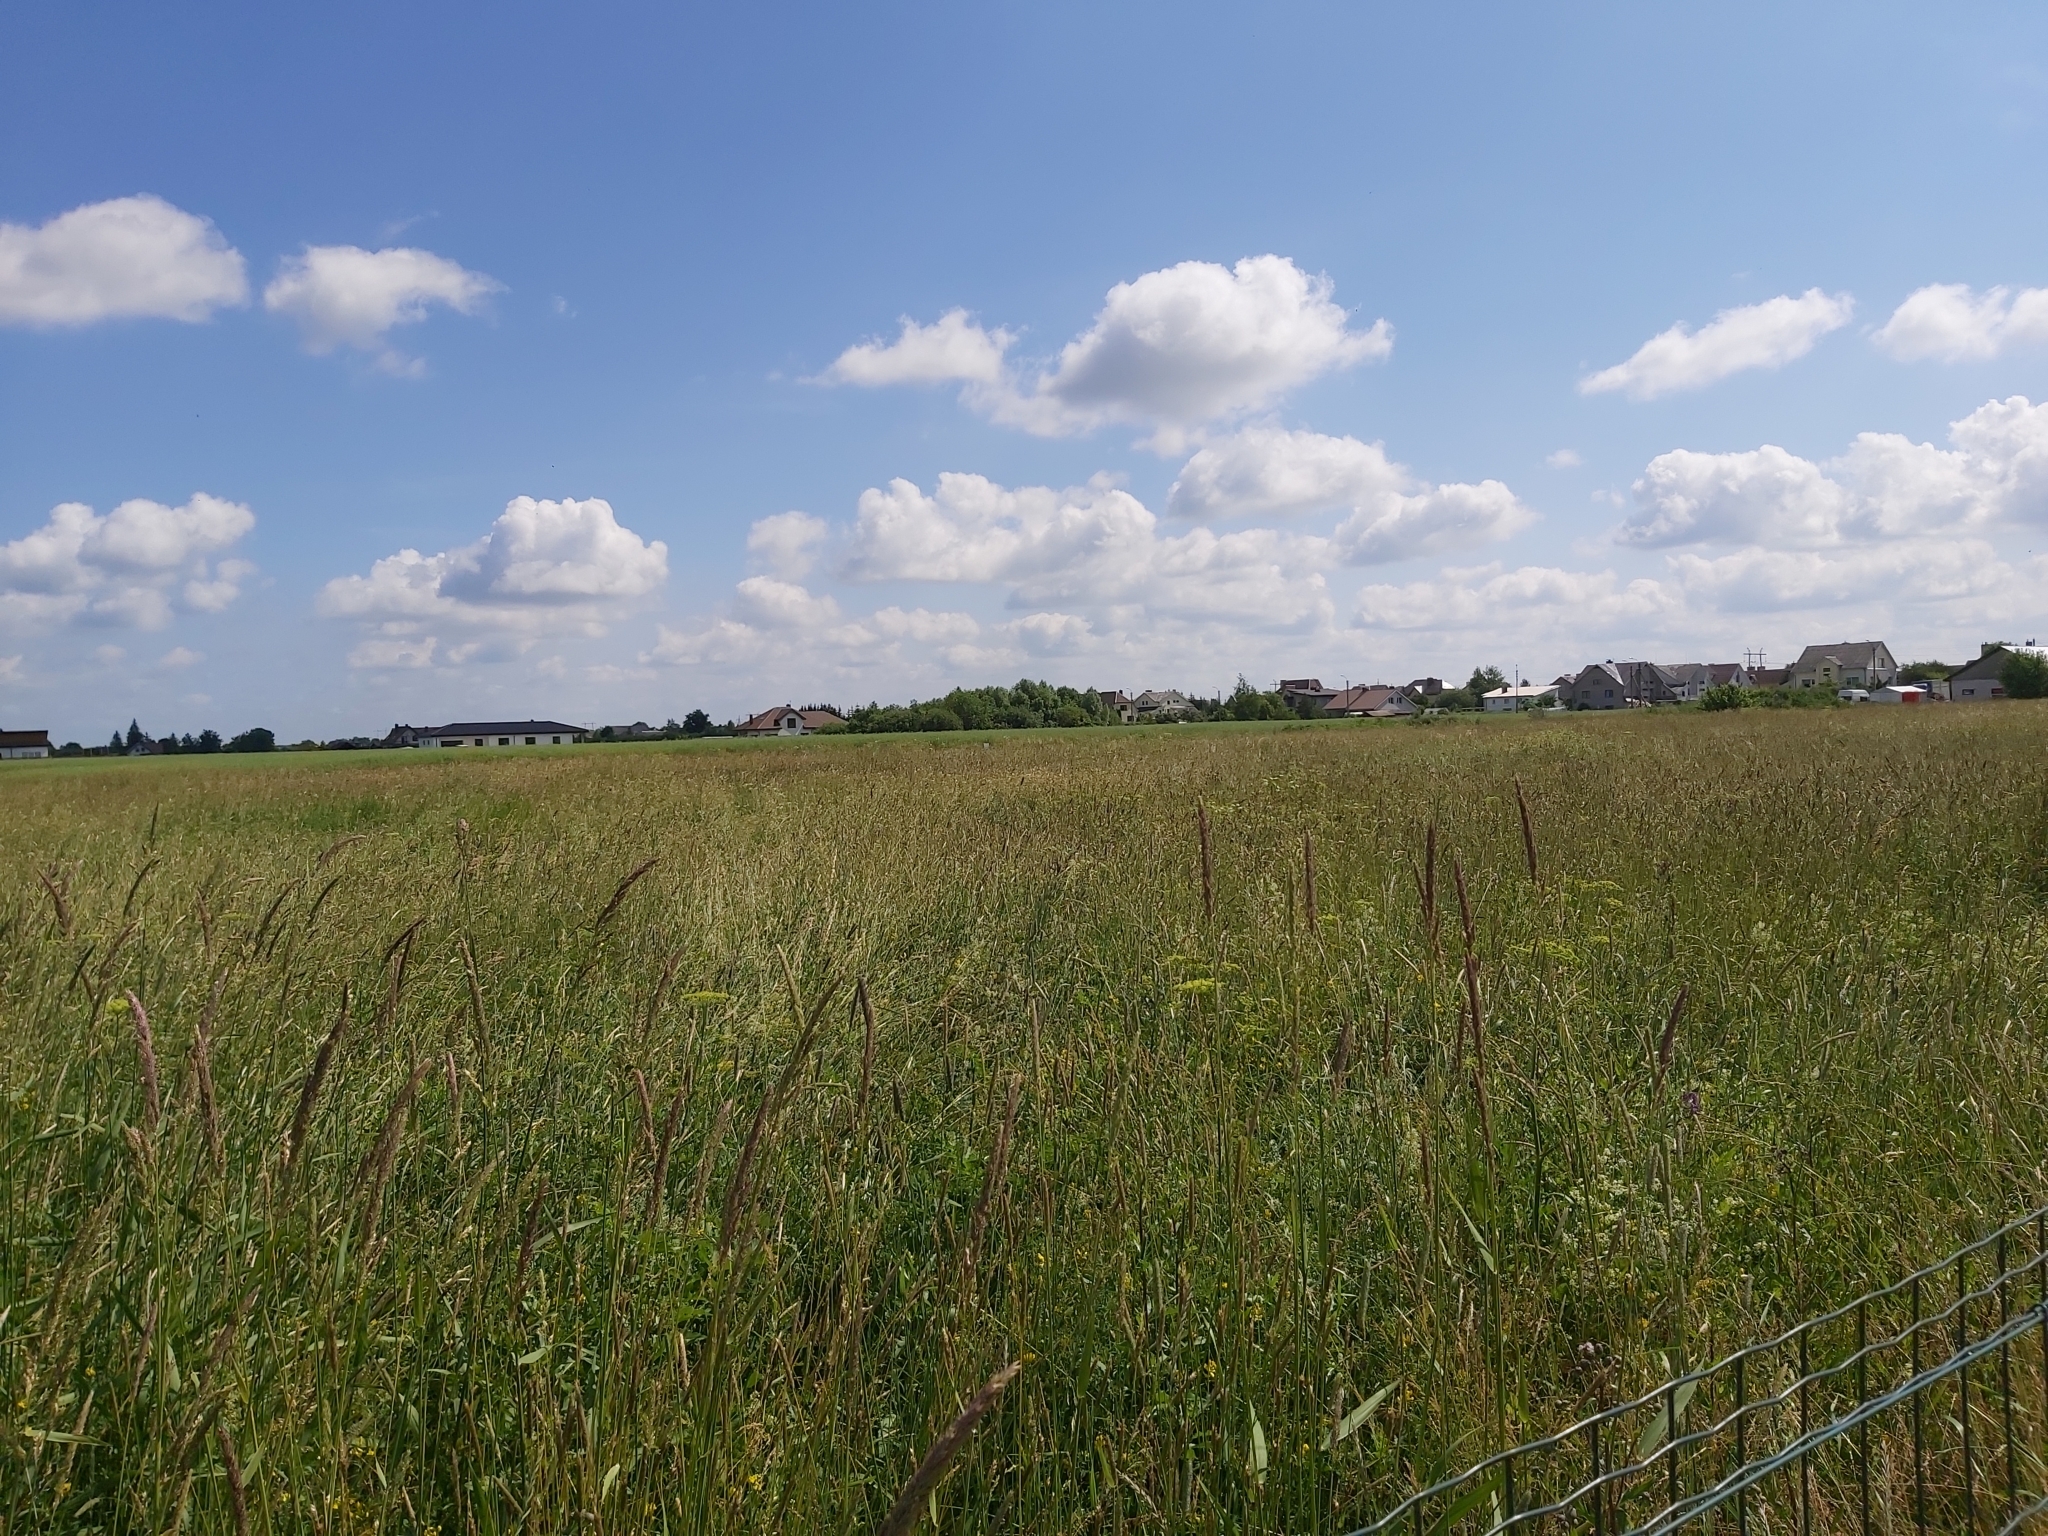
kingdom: Animalia
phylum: Chordata
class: Aves
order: Gruiformes
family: Rallidae
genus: Crex
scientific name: Crex crex
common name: Corn crake
